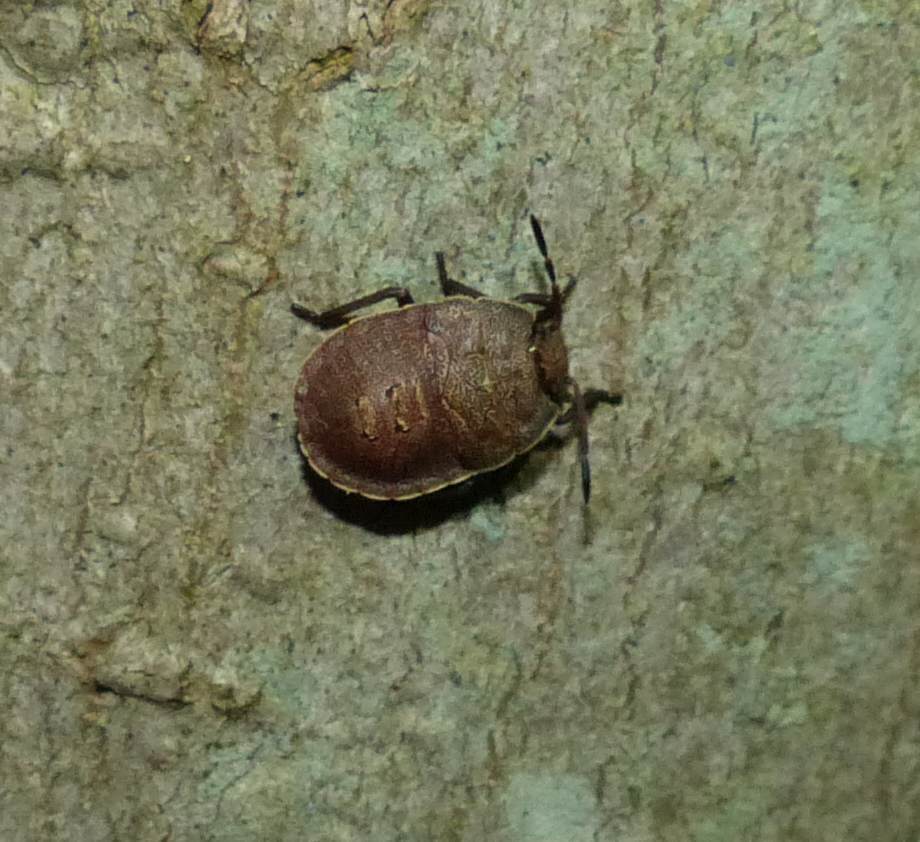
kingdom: Animalia
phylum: Arthropoda
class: Insecta
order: Hemiptera
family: Pentatomidae
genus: Menecles
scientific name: Menecles insertus
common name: Elf shoe stink bug
